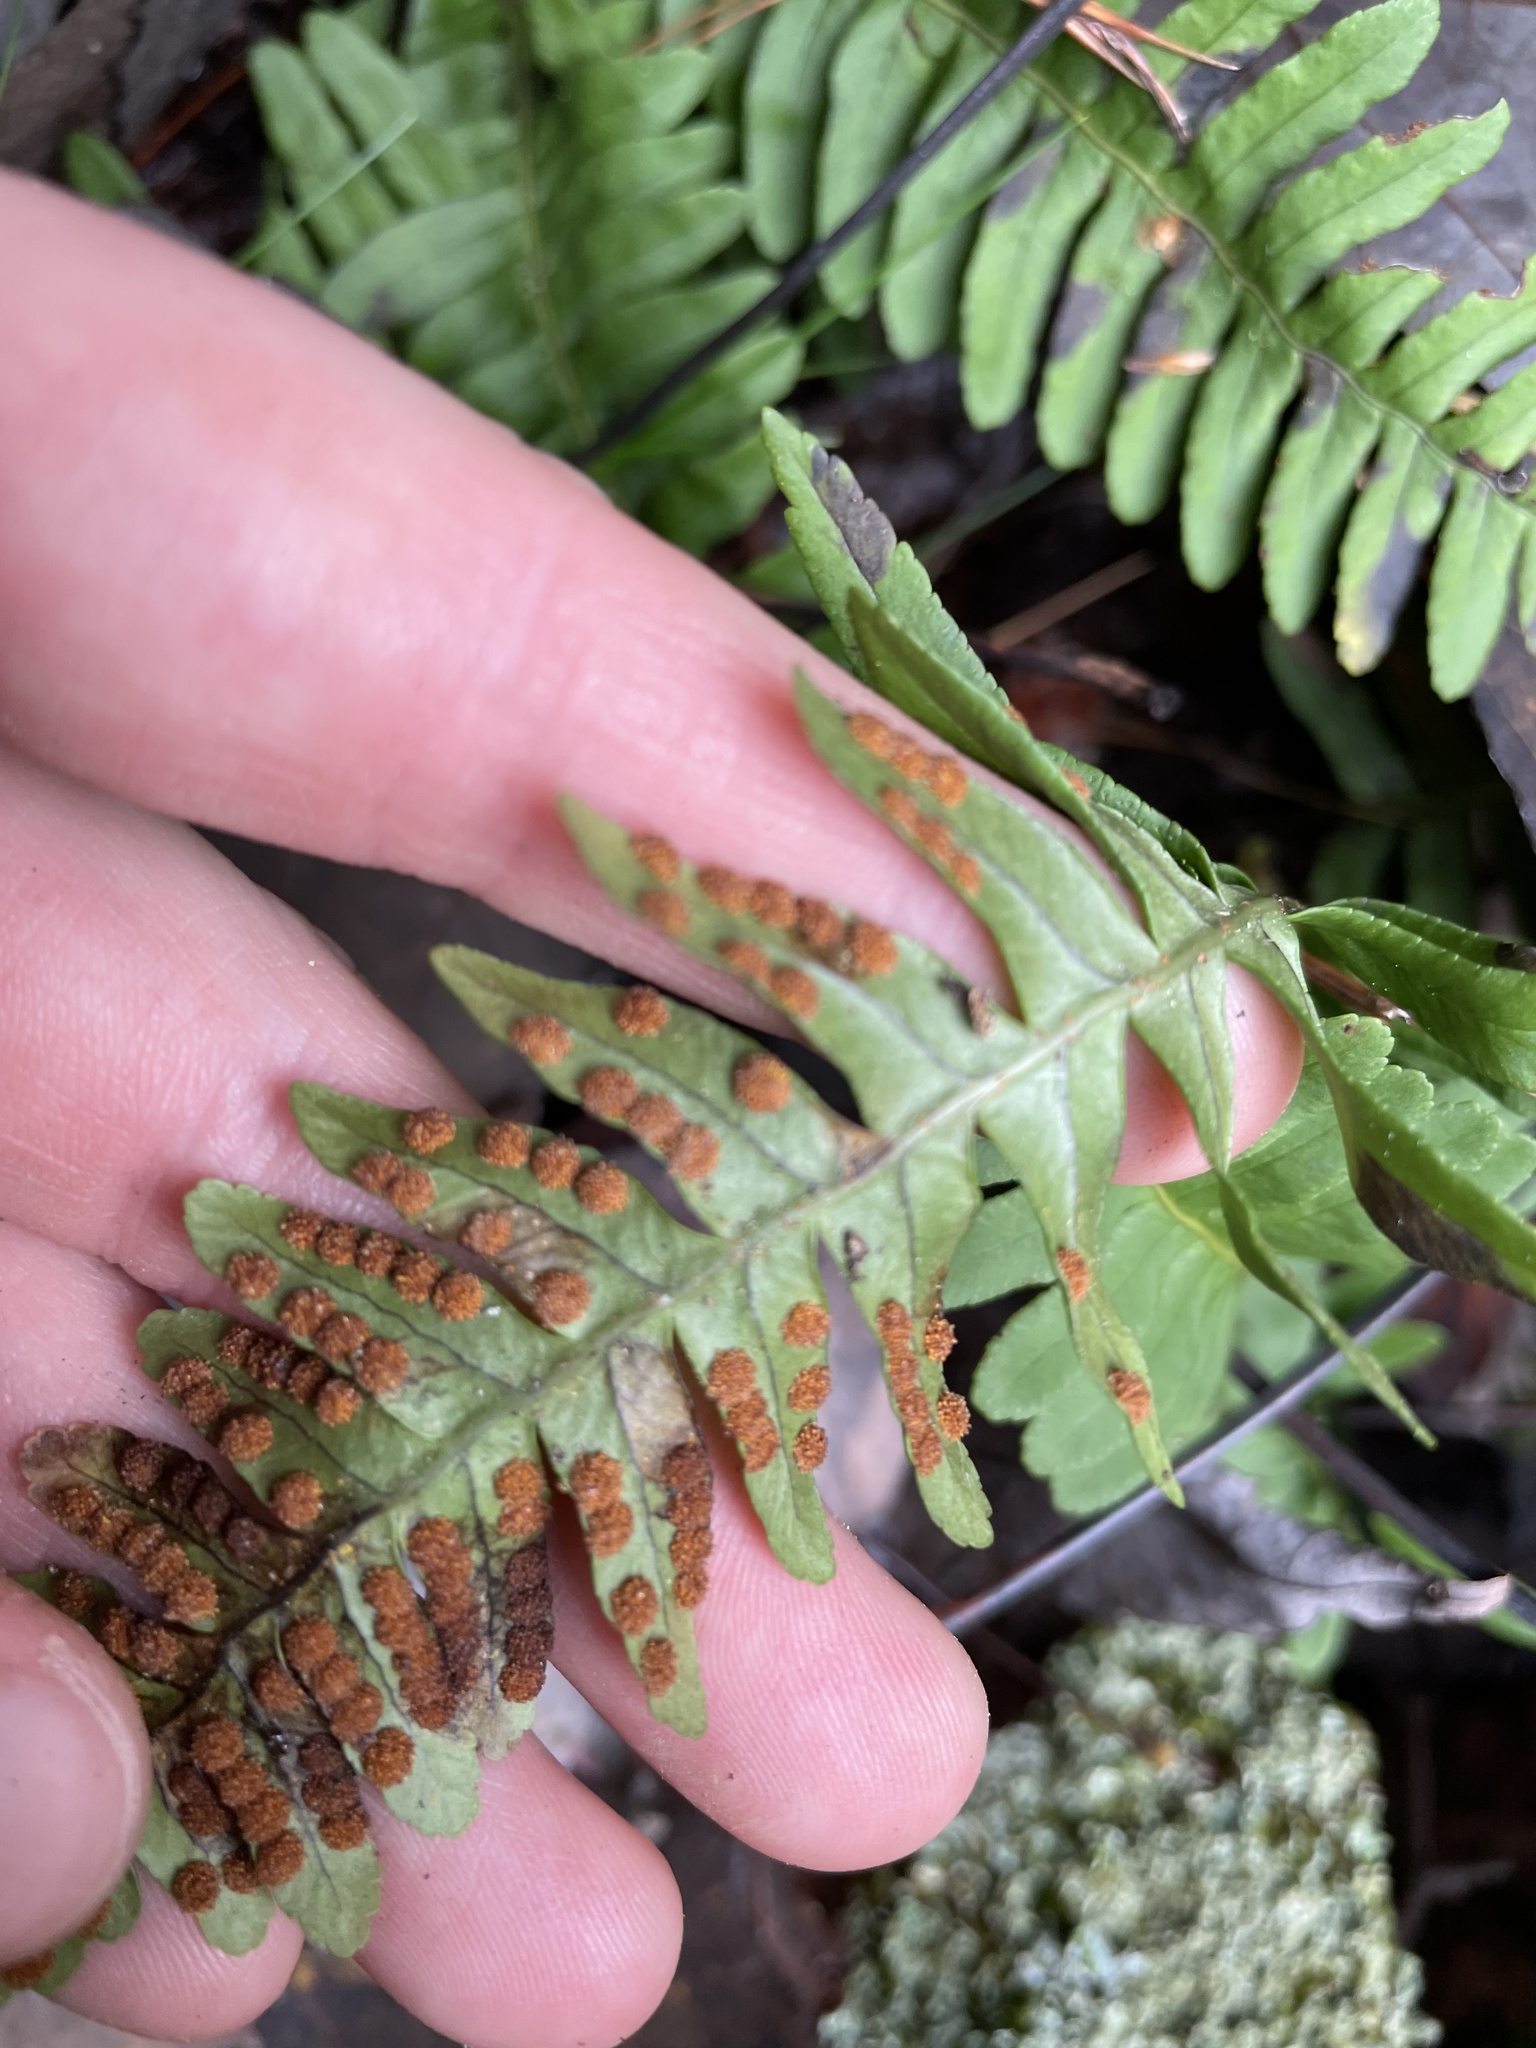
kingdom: Plantae
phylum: Tracheophyta
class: Polypodiopsida
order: Polypodiales
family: Polypodiaceae
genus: Polypodium
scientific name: Polypodium virginianum
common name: American wall fern
